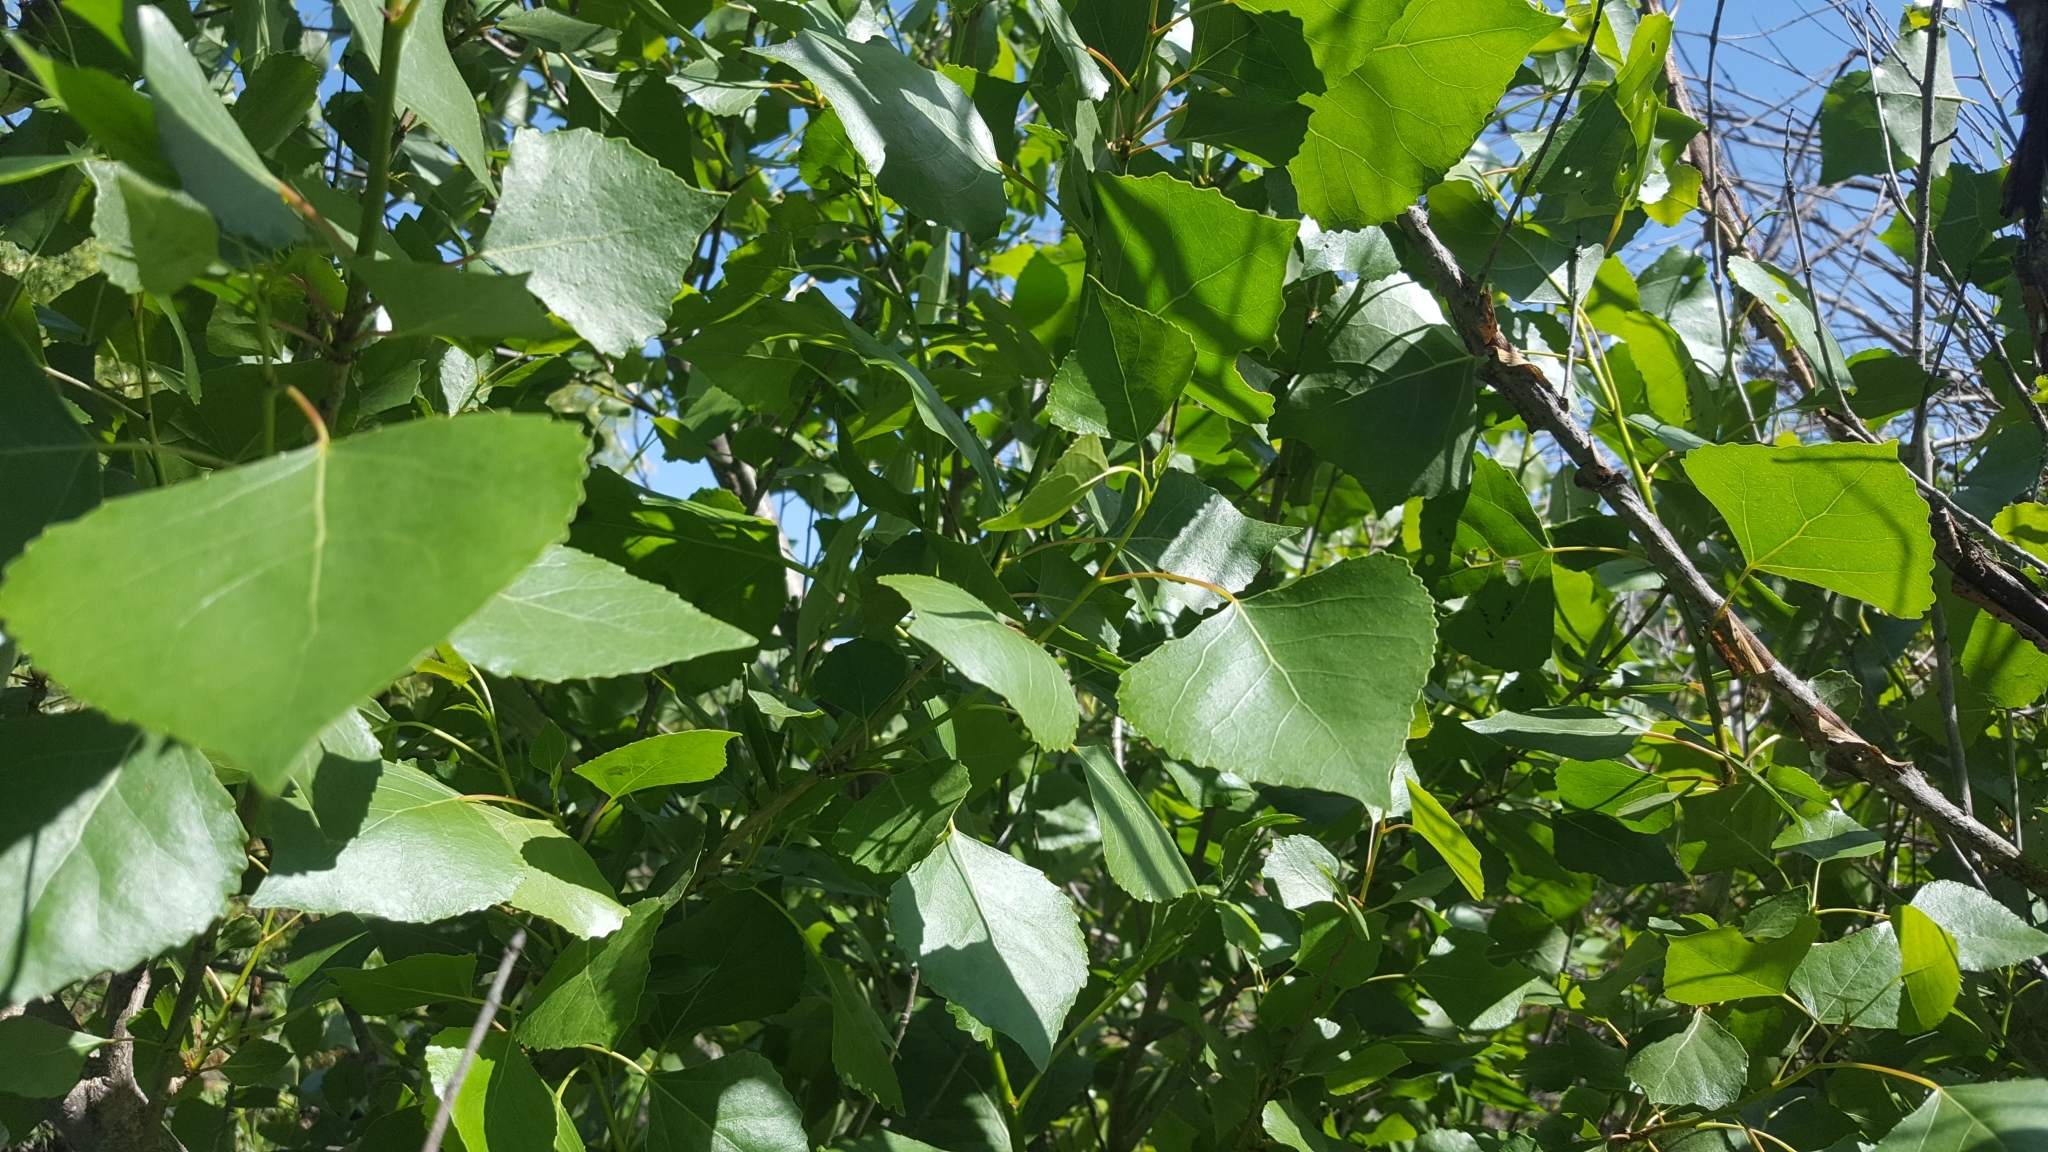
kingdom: Plantae
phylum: Tracheophyta
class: Magnoliopsida
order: Malpighiales
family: Salicaceae
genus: Populus
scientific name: Populus fremontii
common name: Fremont's cottonwood
